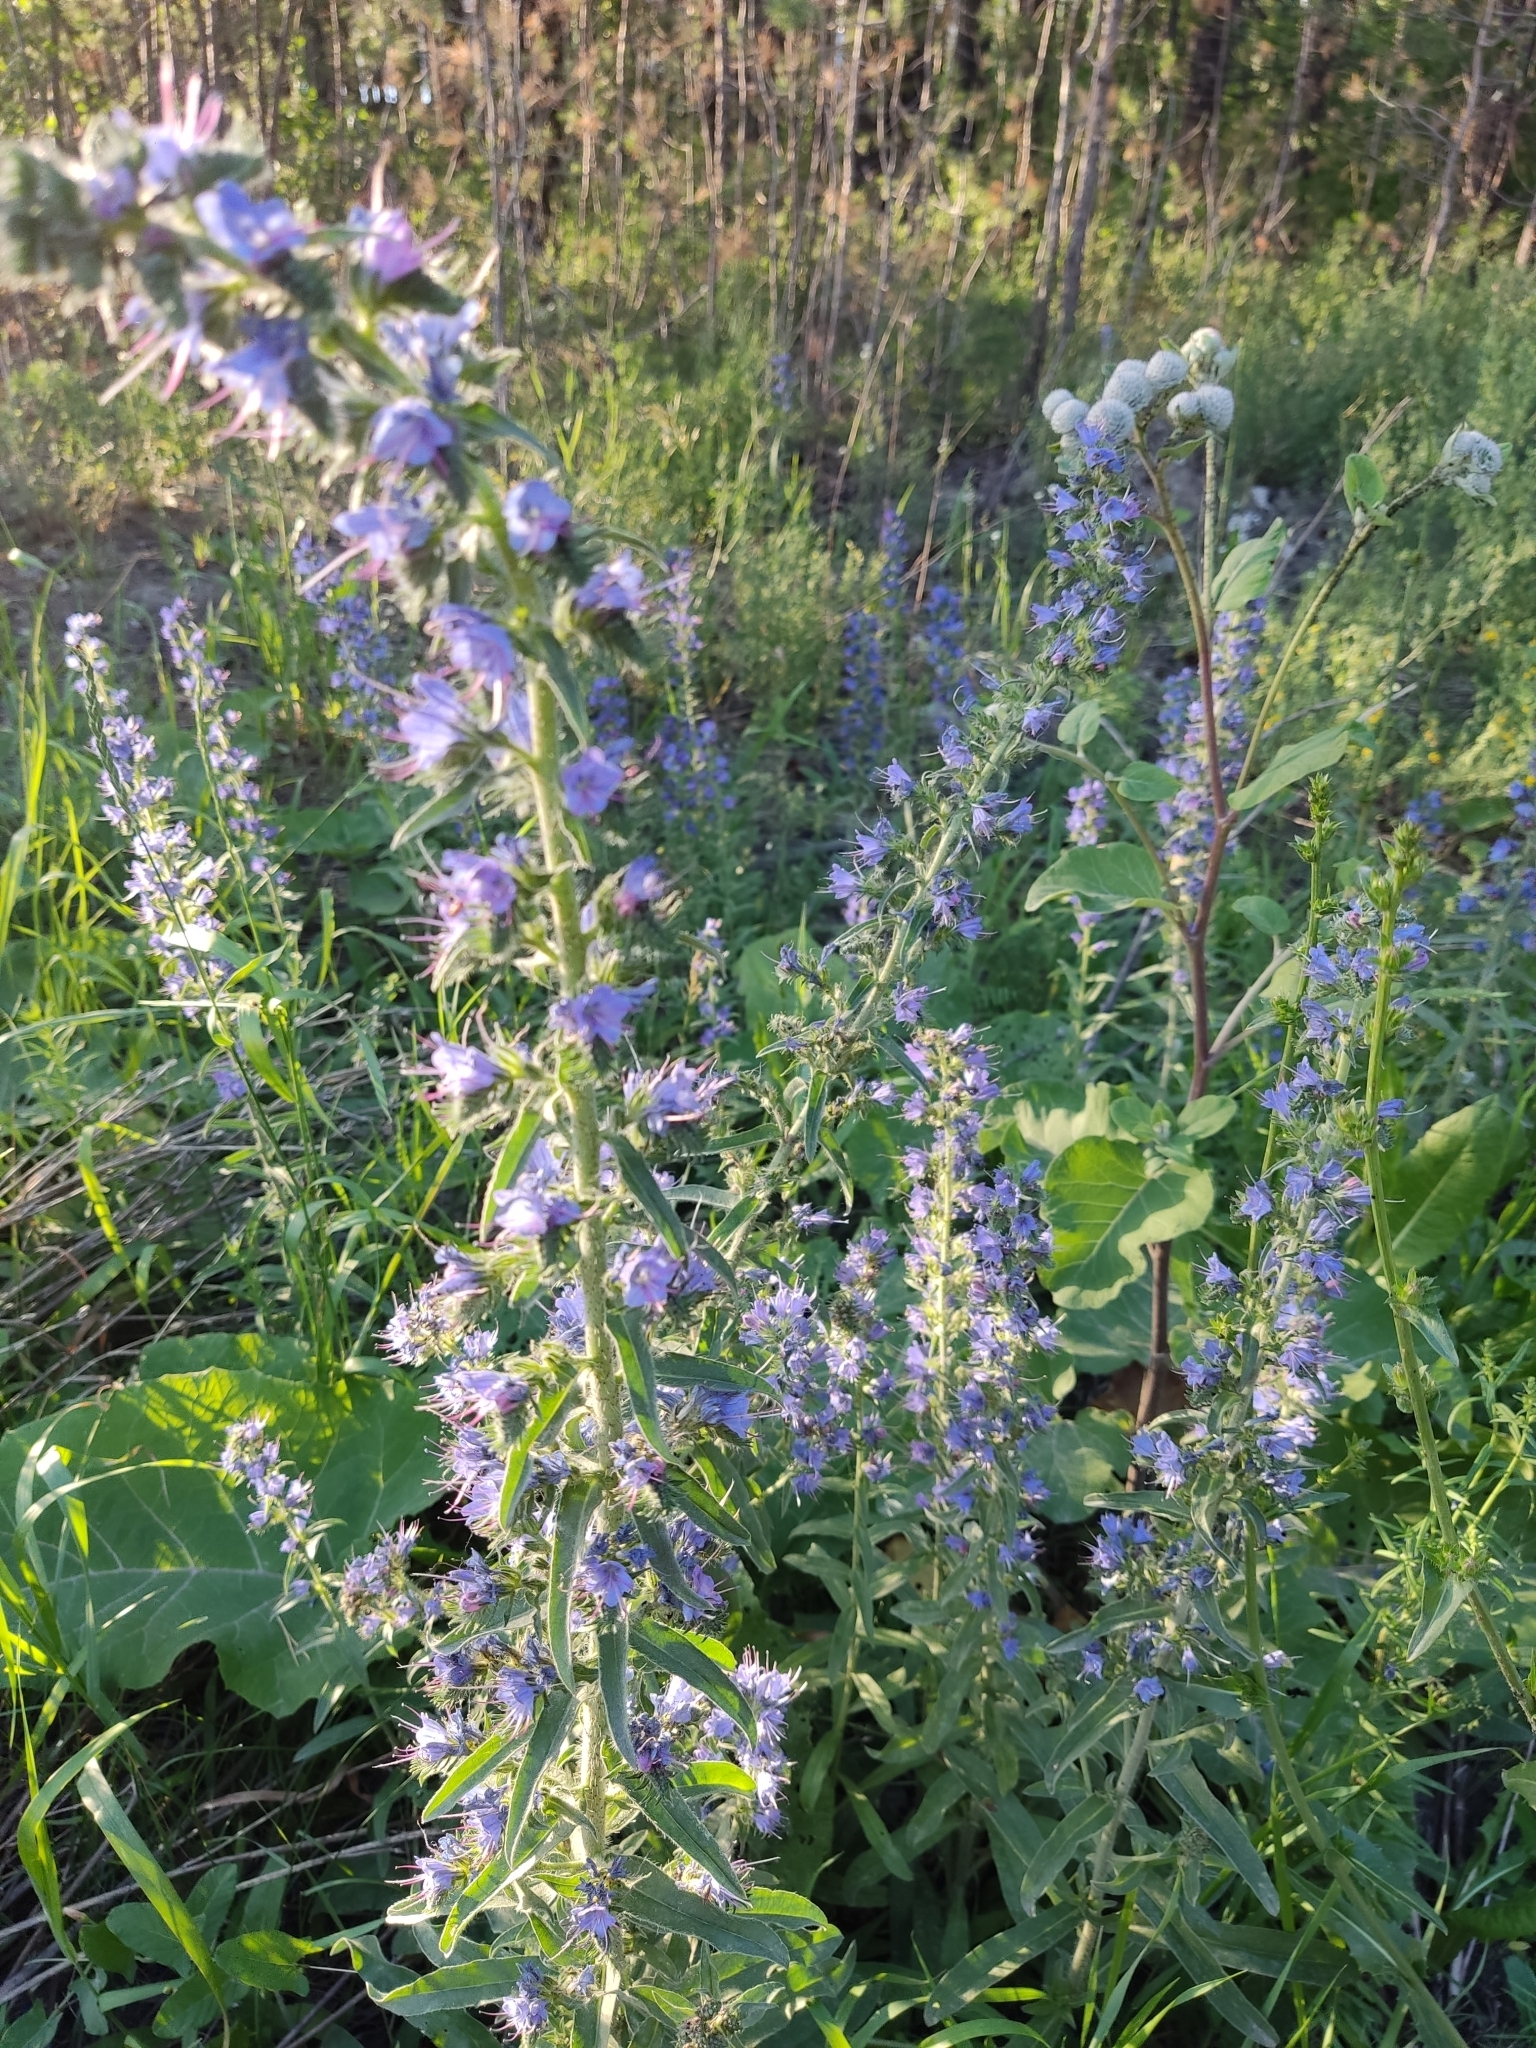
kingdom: Plantae
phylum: Tracheophyta
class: Magnoliopsida
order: Boraginales
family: Boraginaceae
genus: Echium
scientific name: Echium vulgare
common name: Common viper's bugloss
